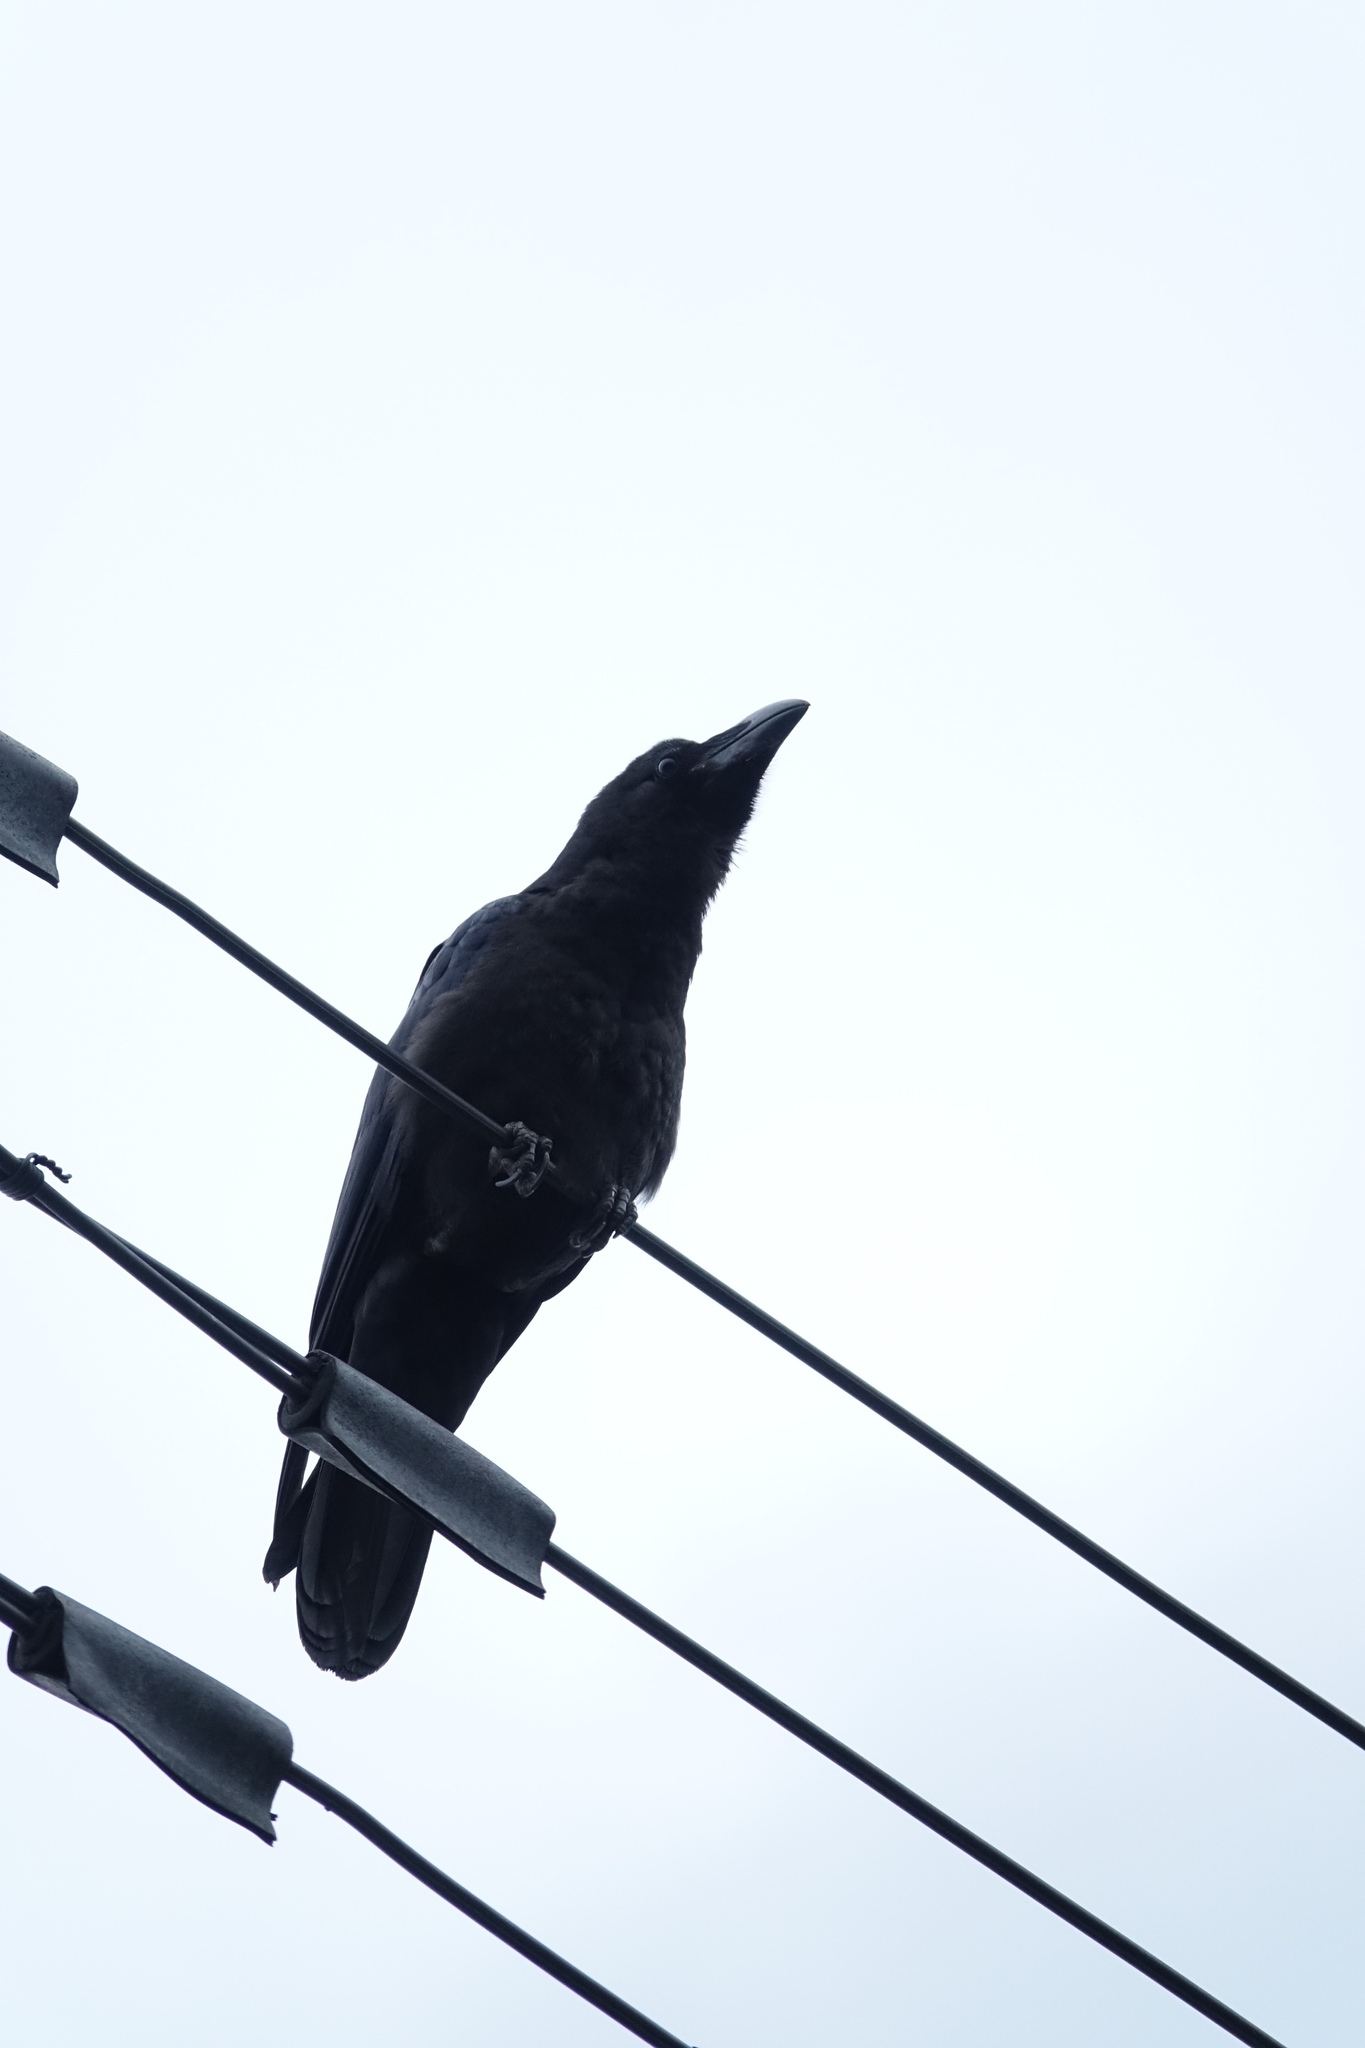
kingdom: Animalia
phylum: Chordata
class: Aves
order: Passeriformes
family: Corvidae
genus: Corvus
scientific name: Corvus macrorhynchos
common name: Large-billed crow
